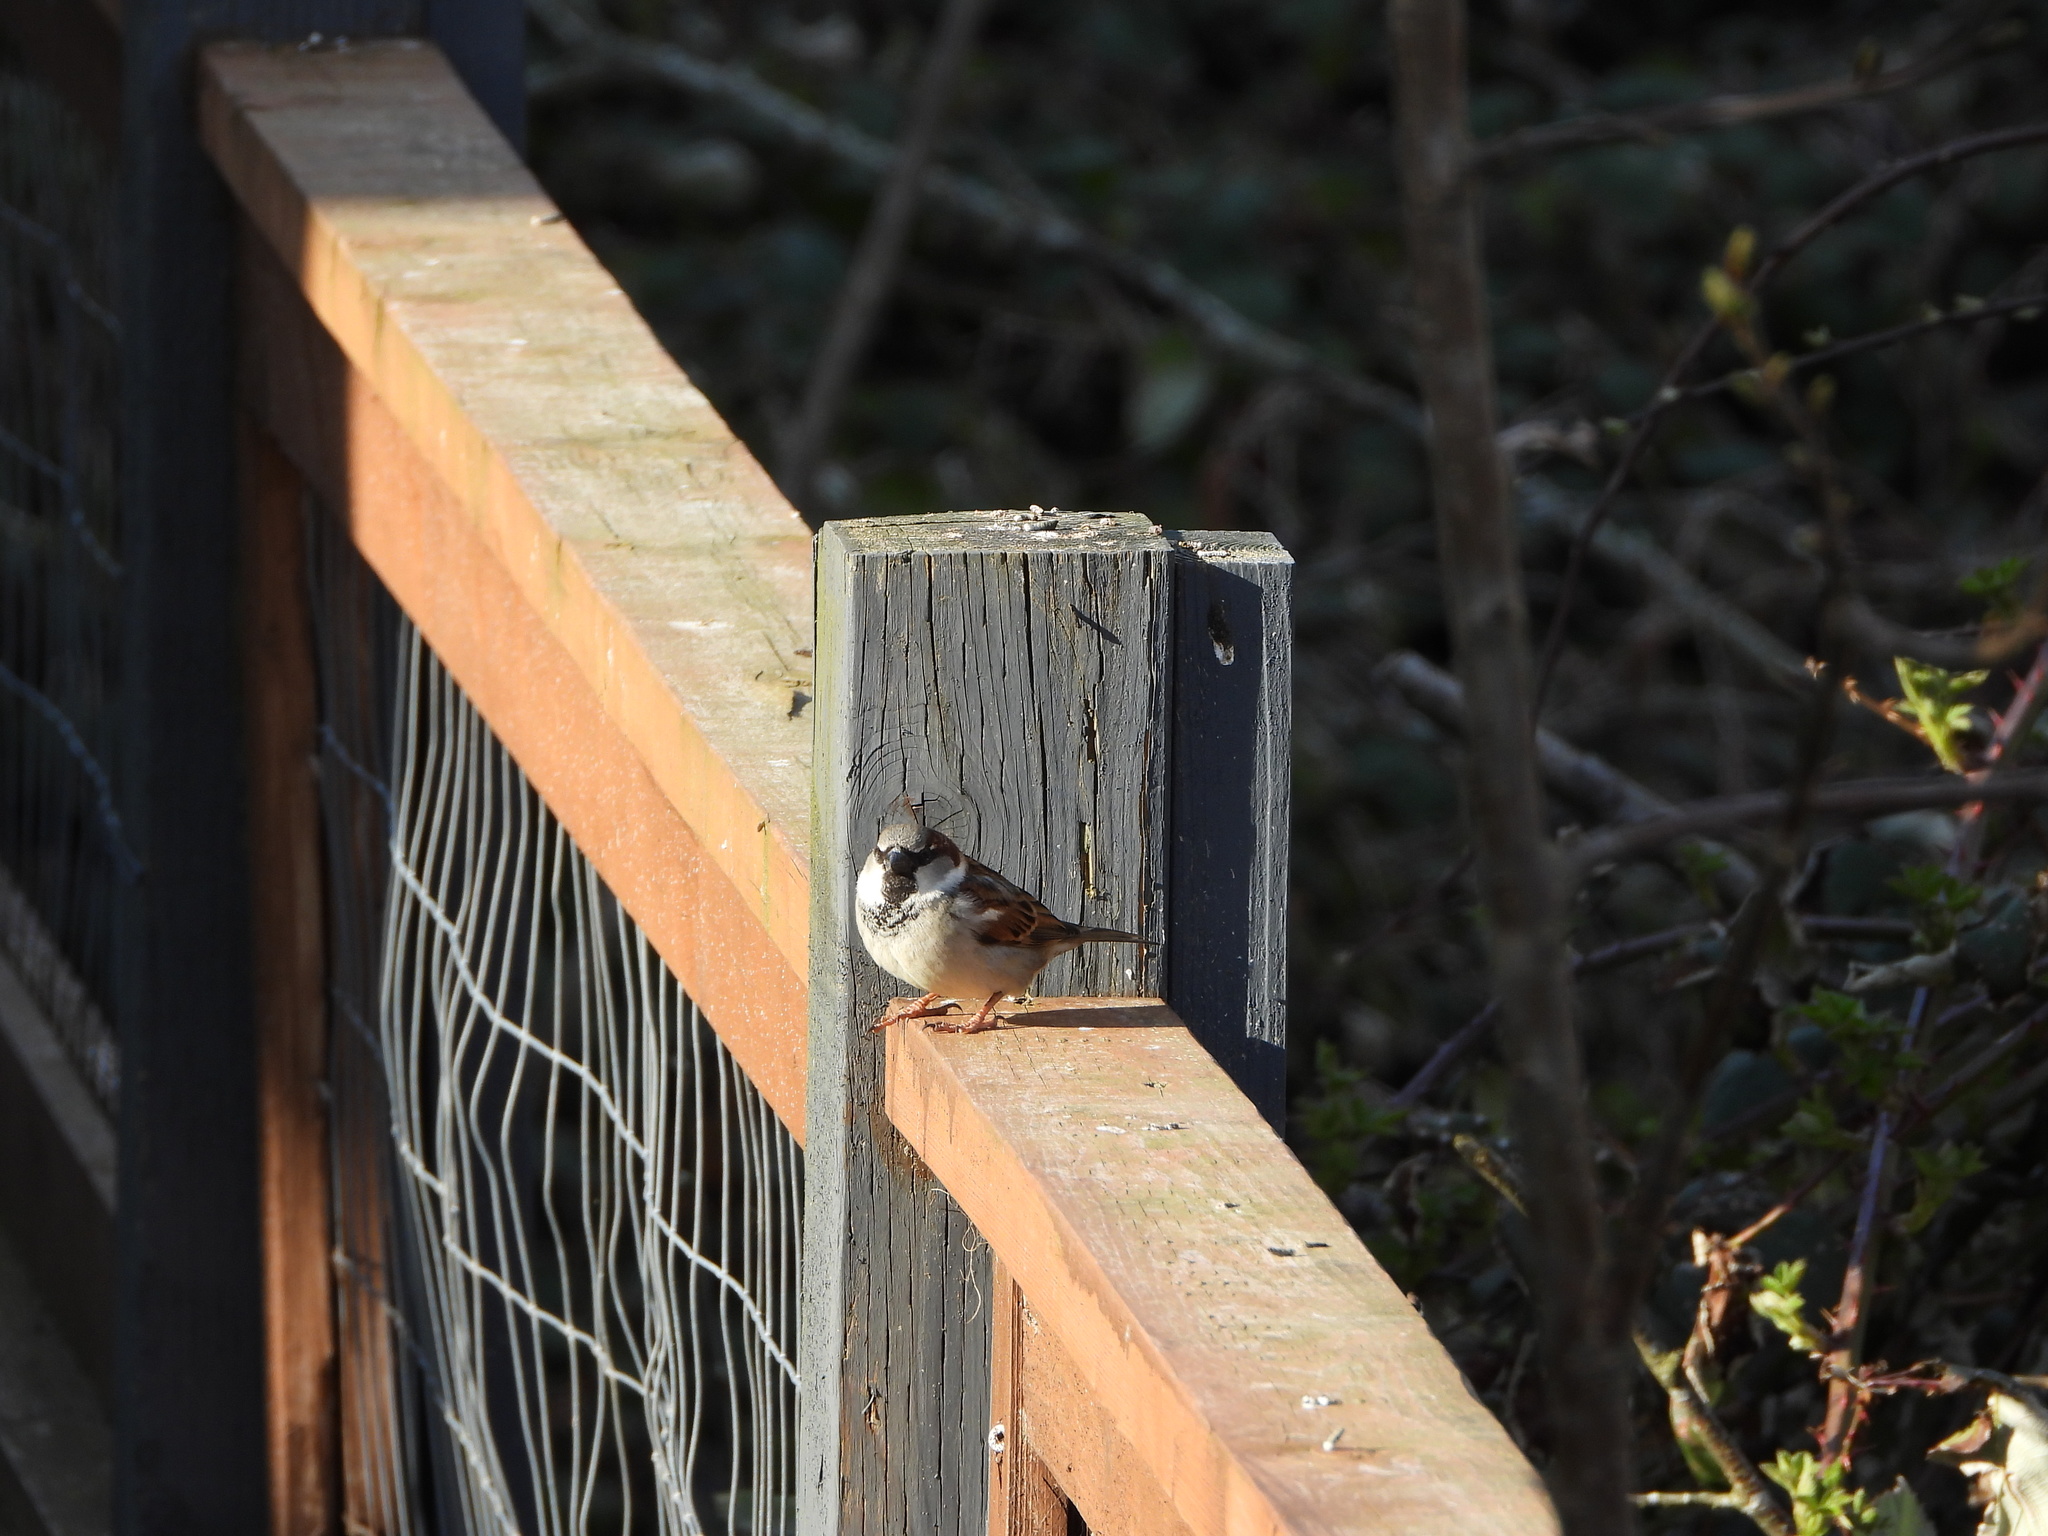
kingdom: Animalia
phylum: Chordata
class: Aves
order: Passeriformes
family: Passeridae
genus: Passer
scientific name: Passer domesticus
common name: House sparrow
